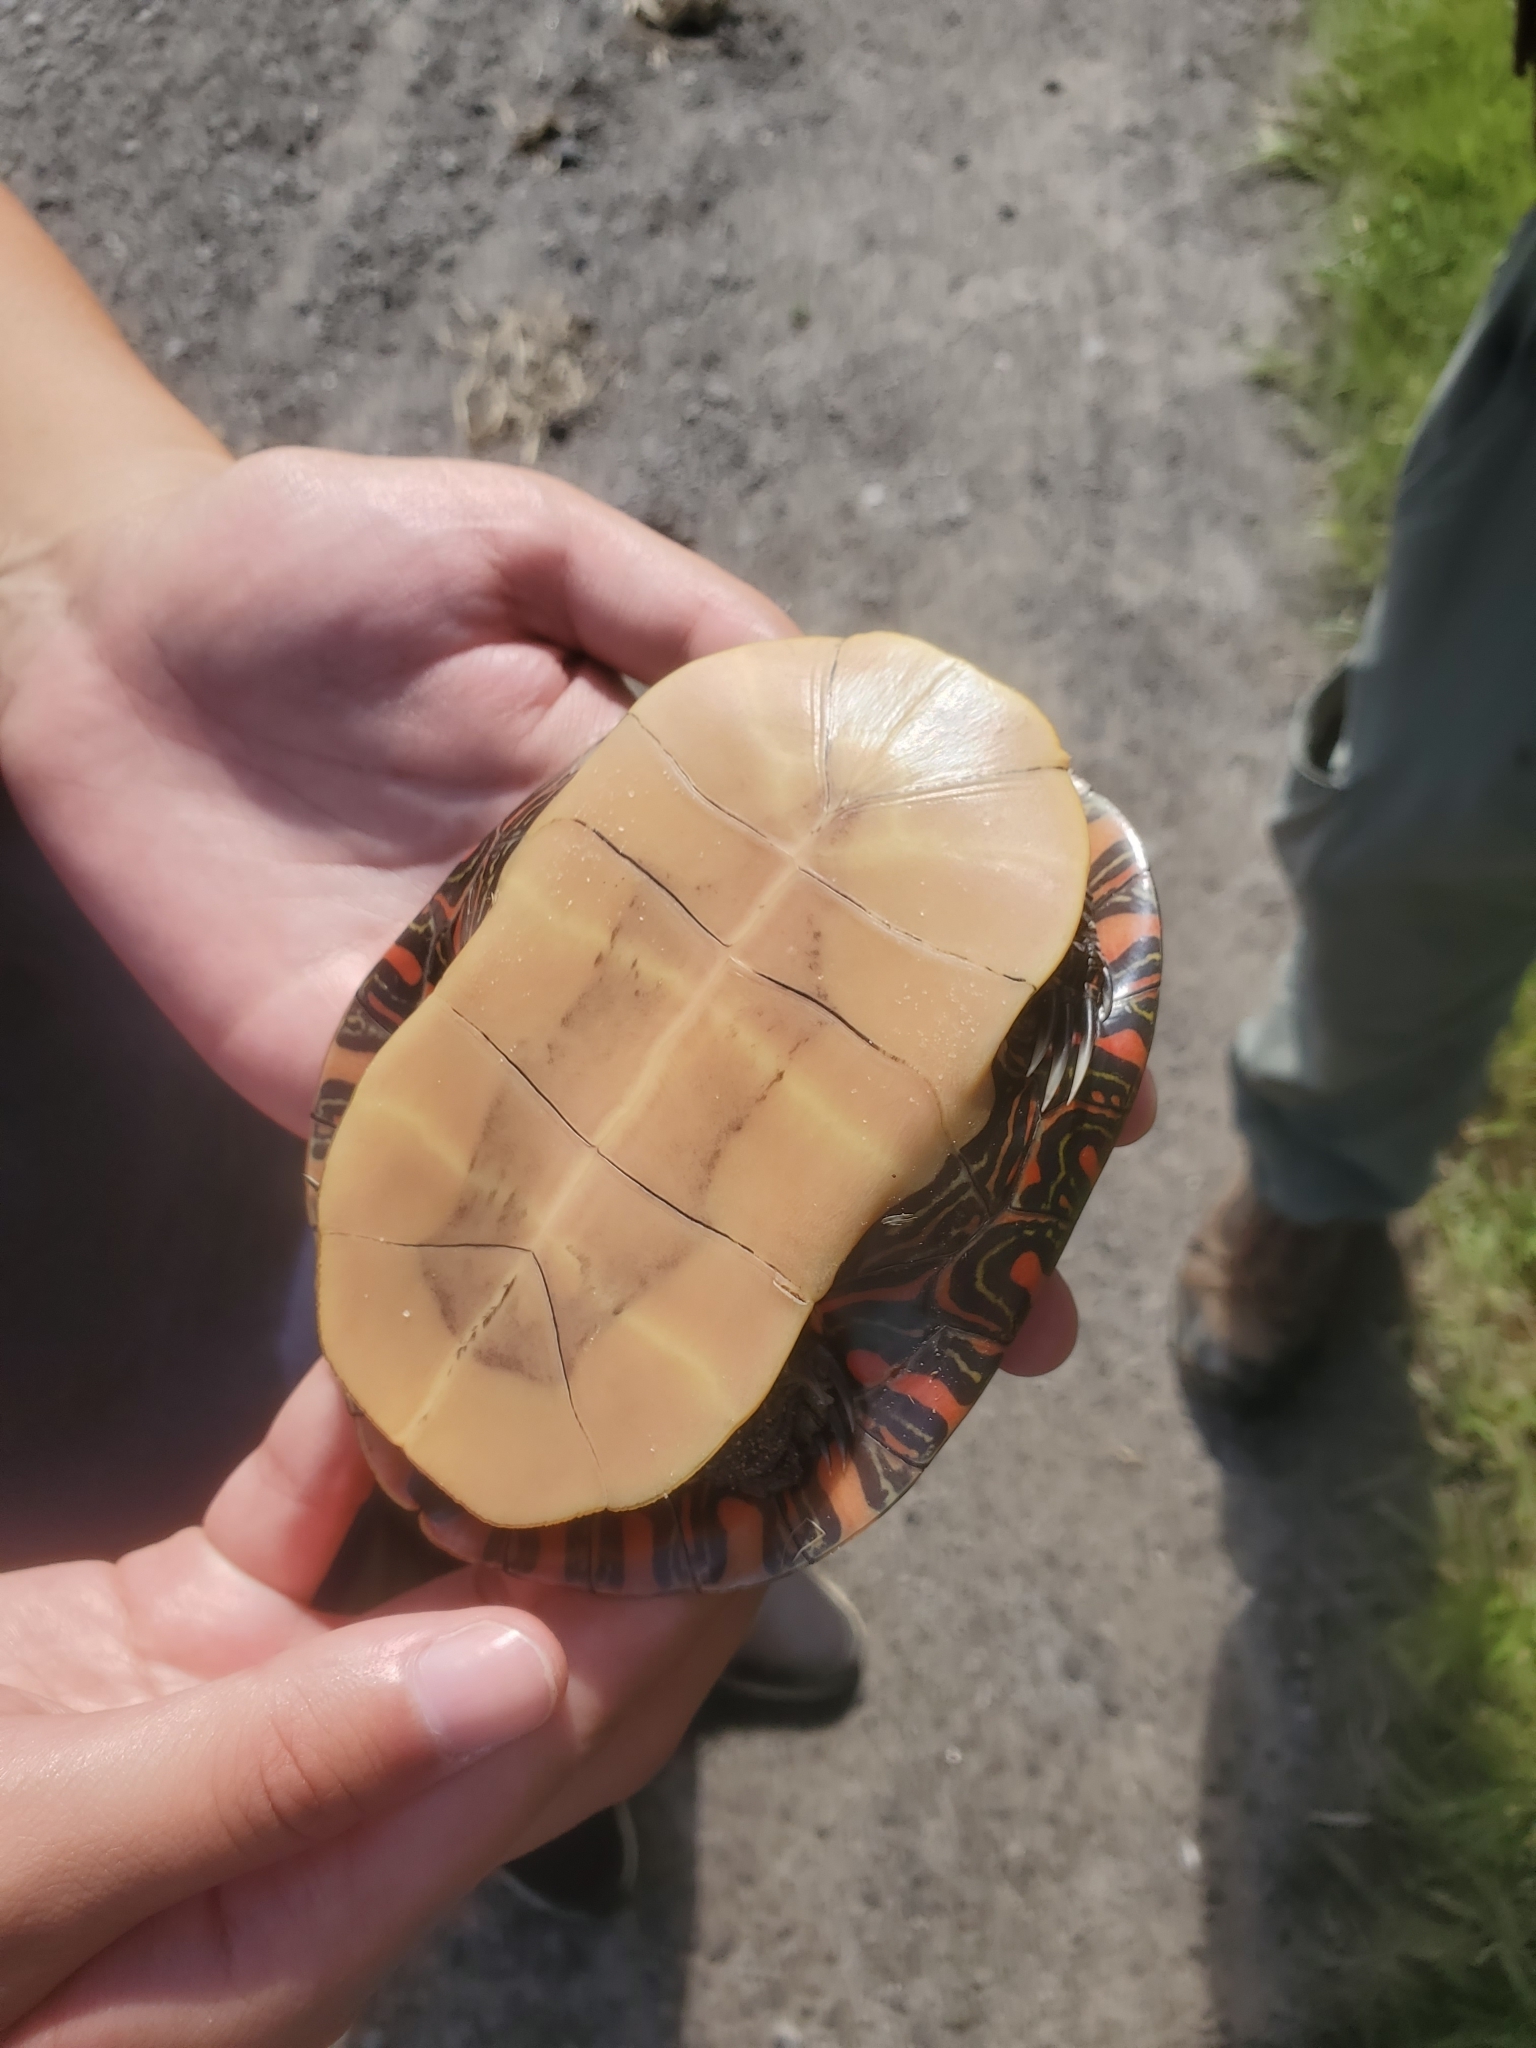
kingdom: Animalia
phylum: Chordata
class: Testudines
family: Emydidae
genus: Chrysemys
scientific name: Chrysemys picta
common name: Painted turtle
